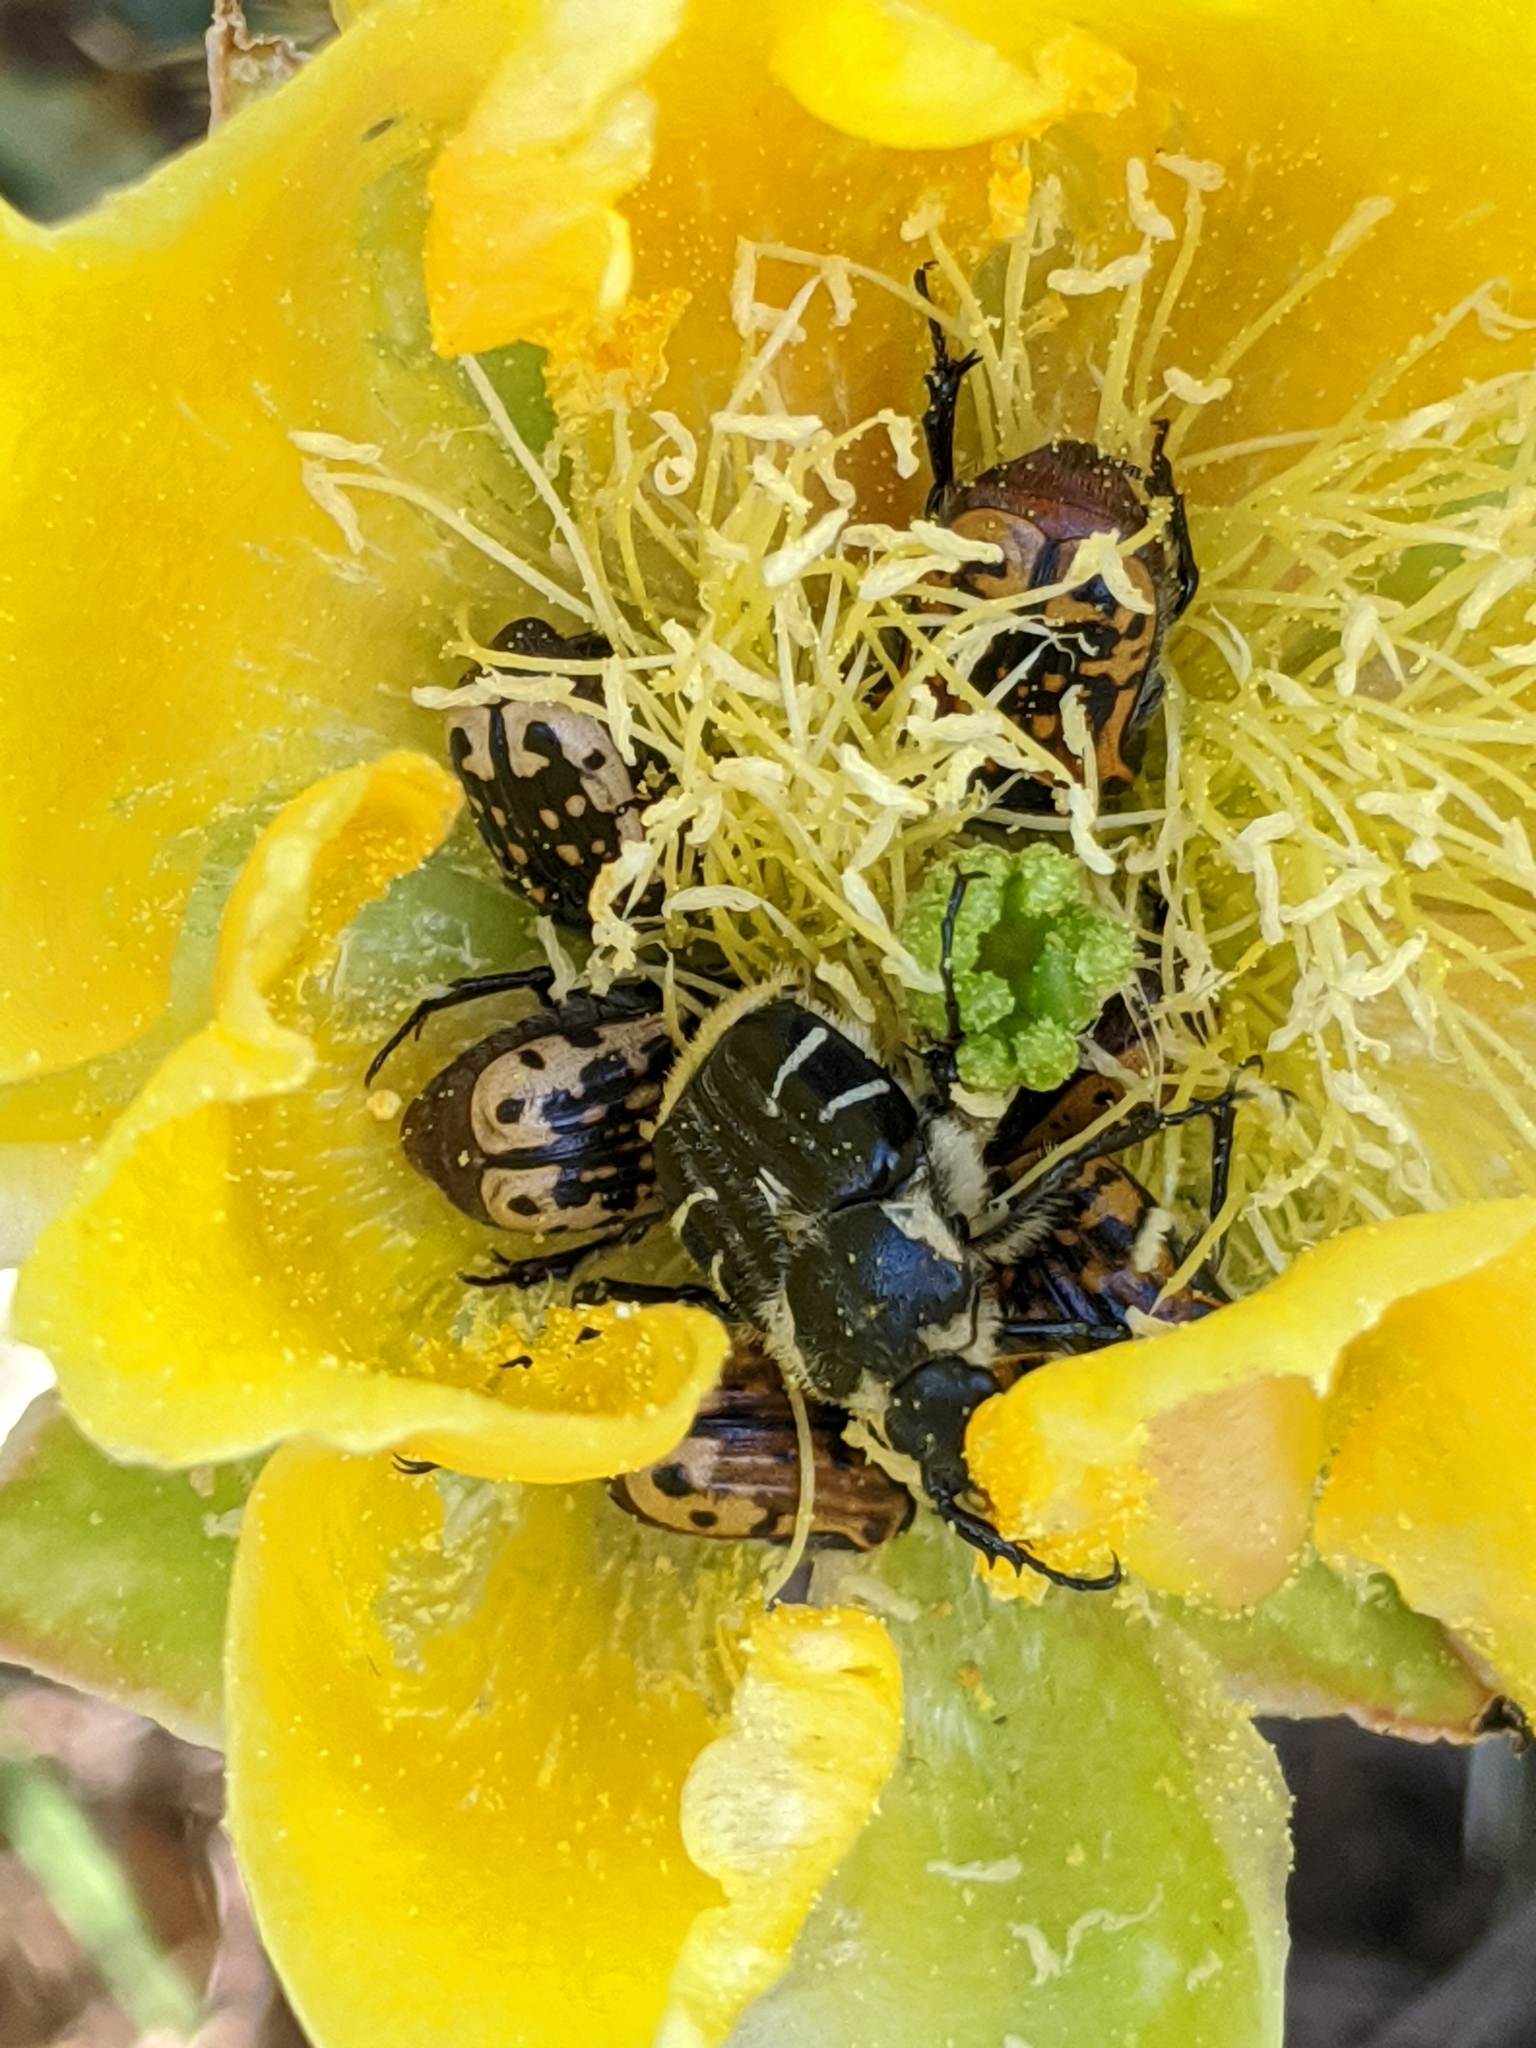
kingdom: Animalia
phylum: Arthropoda
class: Insecta
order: Coleoptera
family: Scarabaeidae
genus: Trichiotinus
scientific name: Trichiotinus texanus
